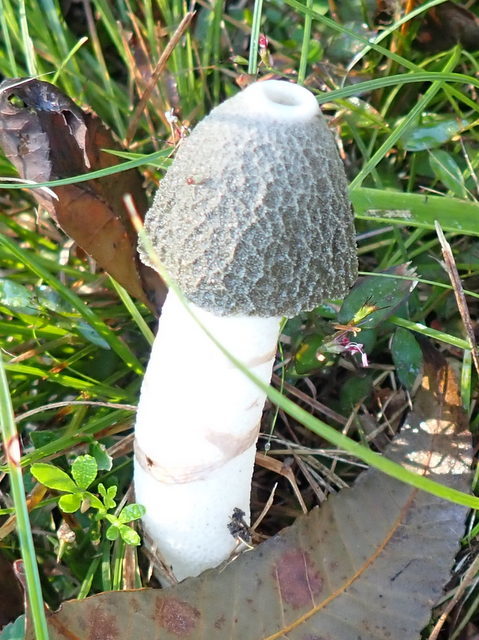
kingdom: Fungi
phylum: Basidiomycota
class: Agaricomycetes
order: Phallales
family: Phallaceae
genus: Phallus
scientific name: Phallus ravenelii
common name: Ravenel's stinkhorn
